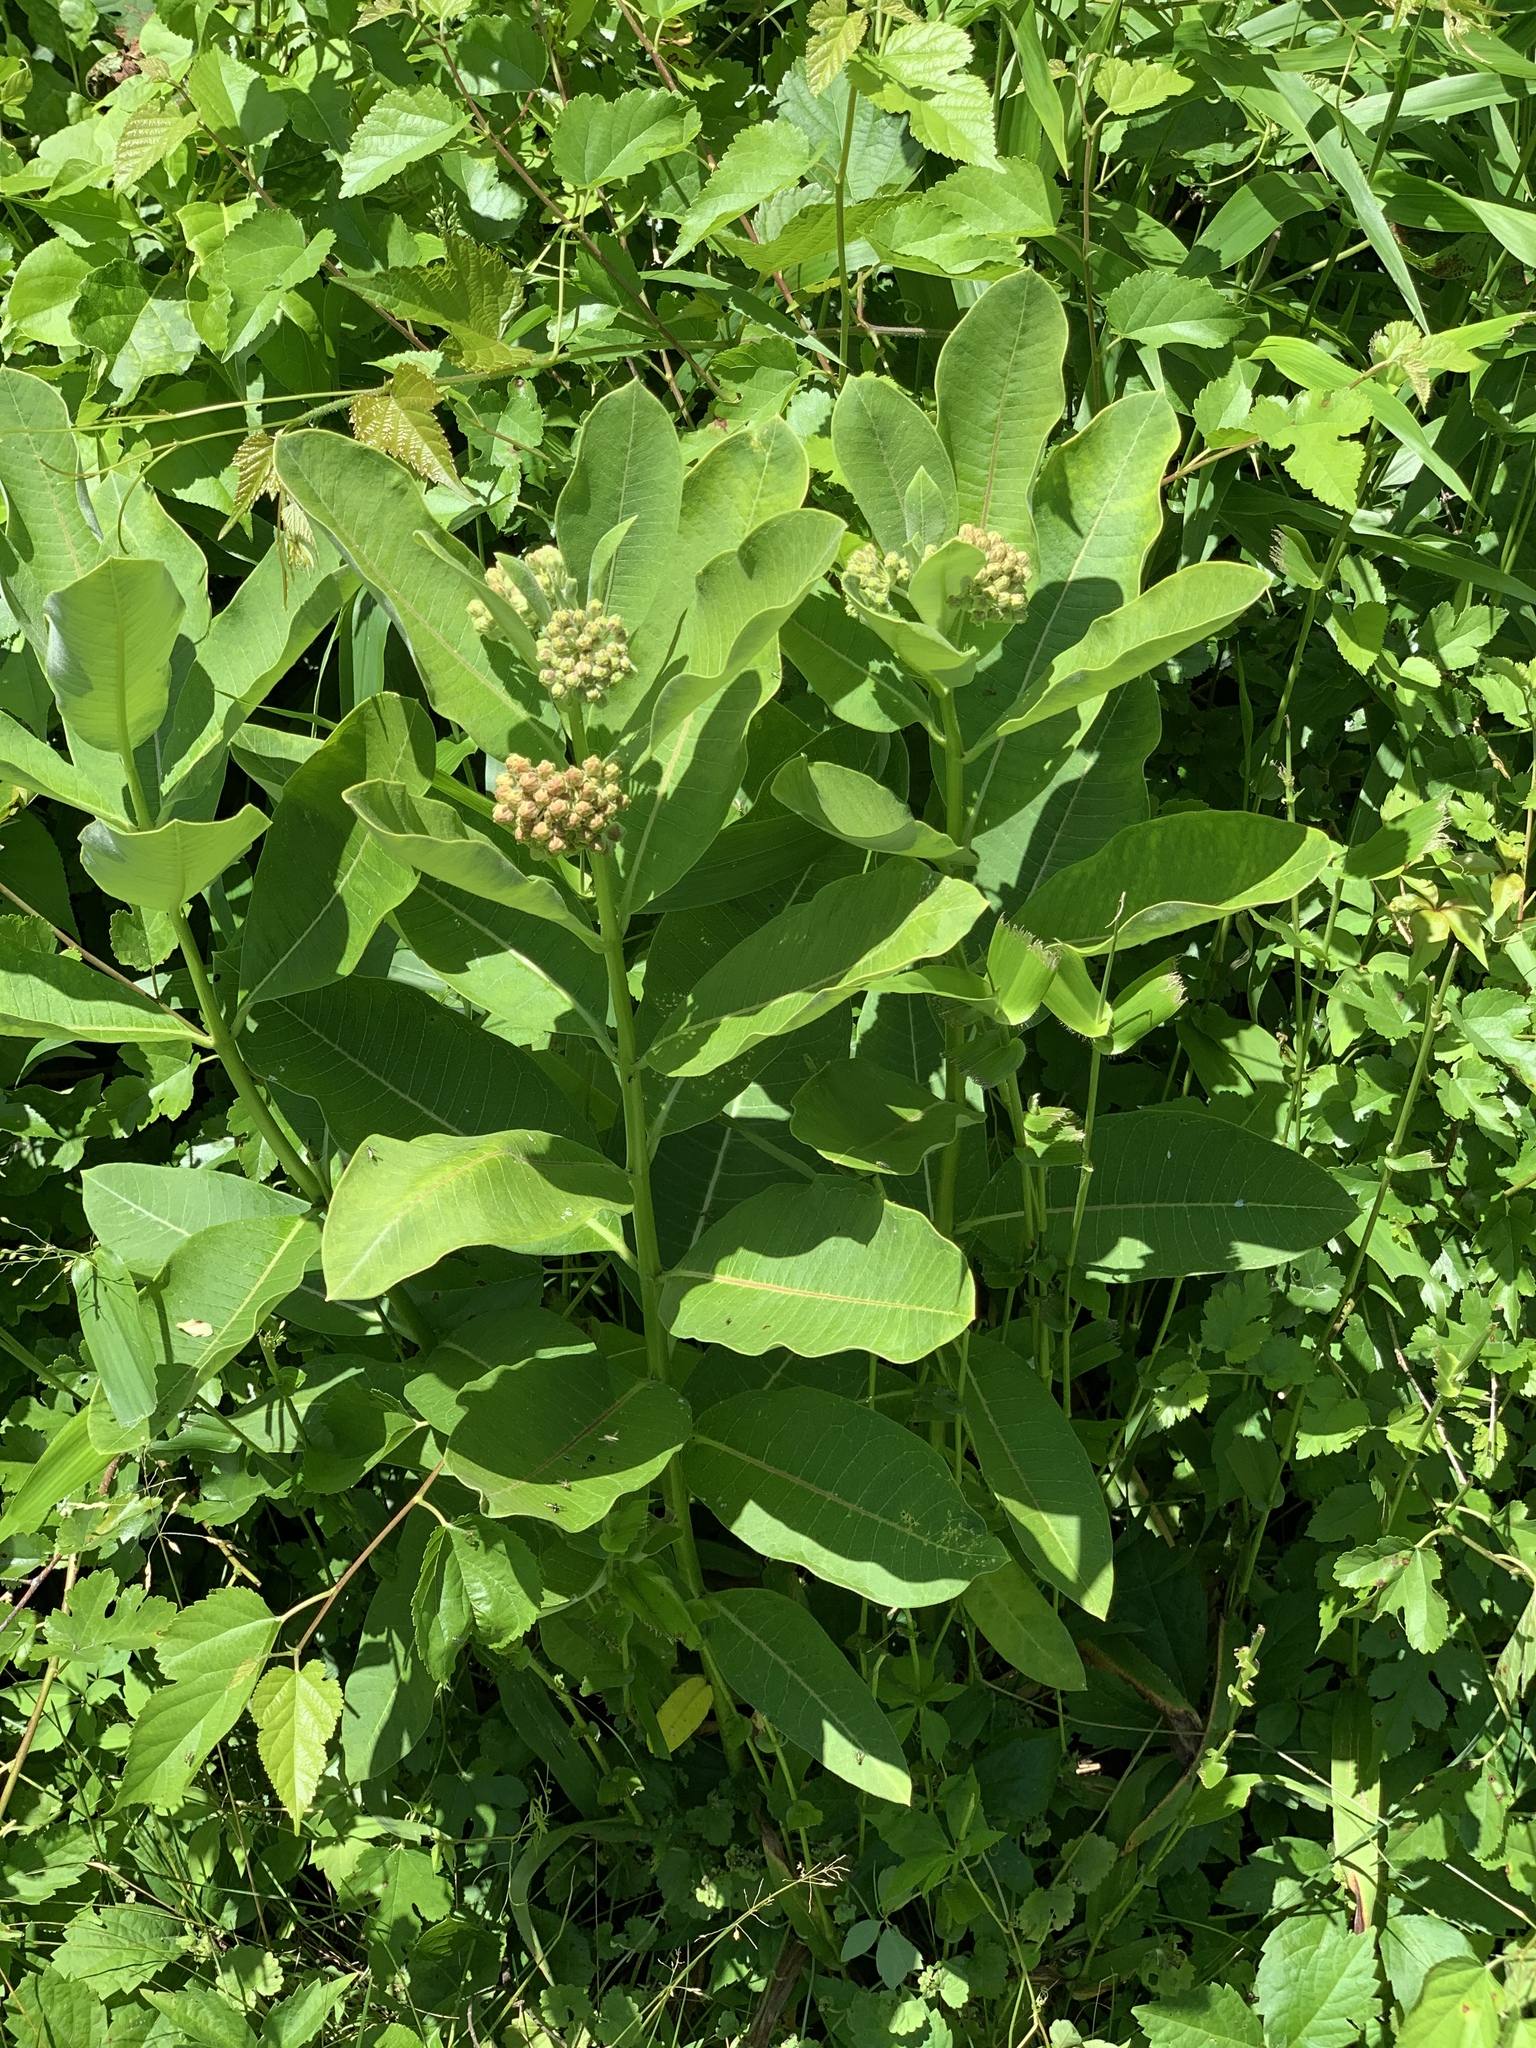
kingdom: Plantae
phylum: Tracheophyta
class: Magnoliopsida
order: Gentianales
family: Apocynaceae
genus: Asclepias
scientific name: Asclepias syriaca
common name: Common milkweed
